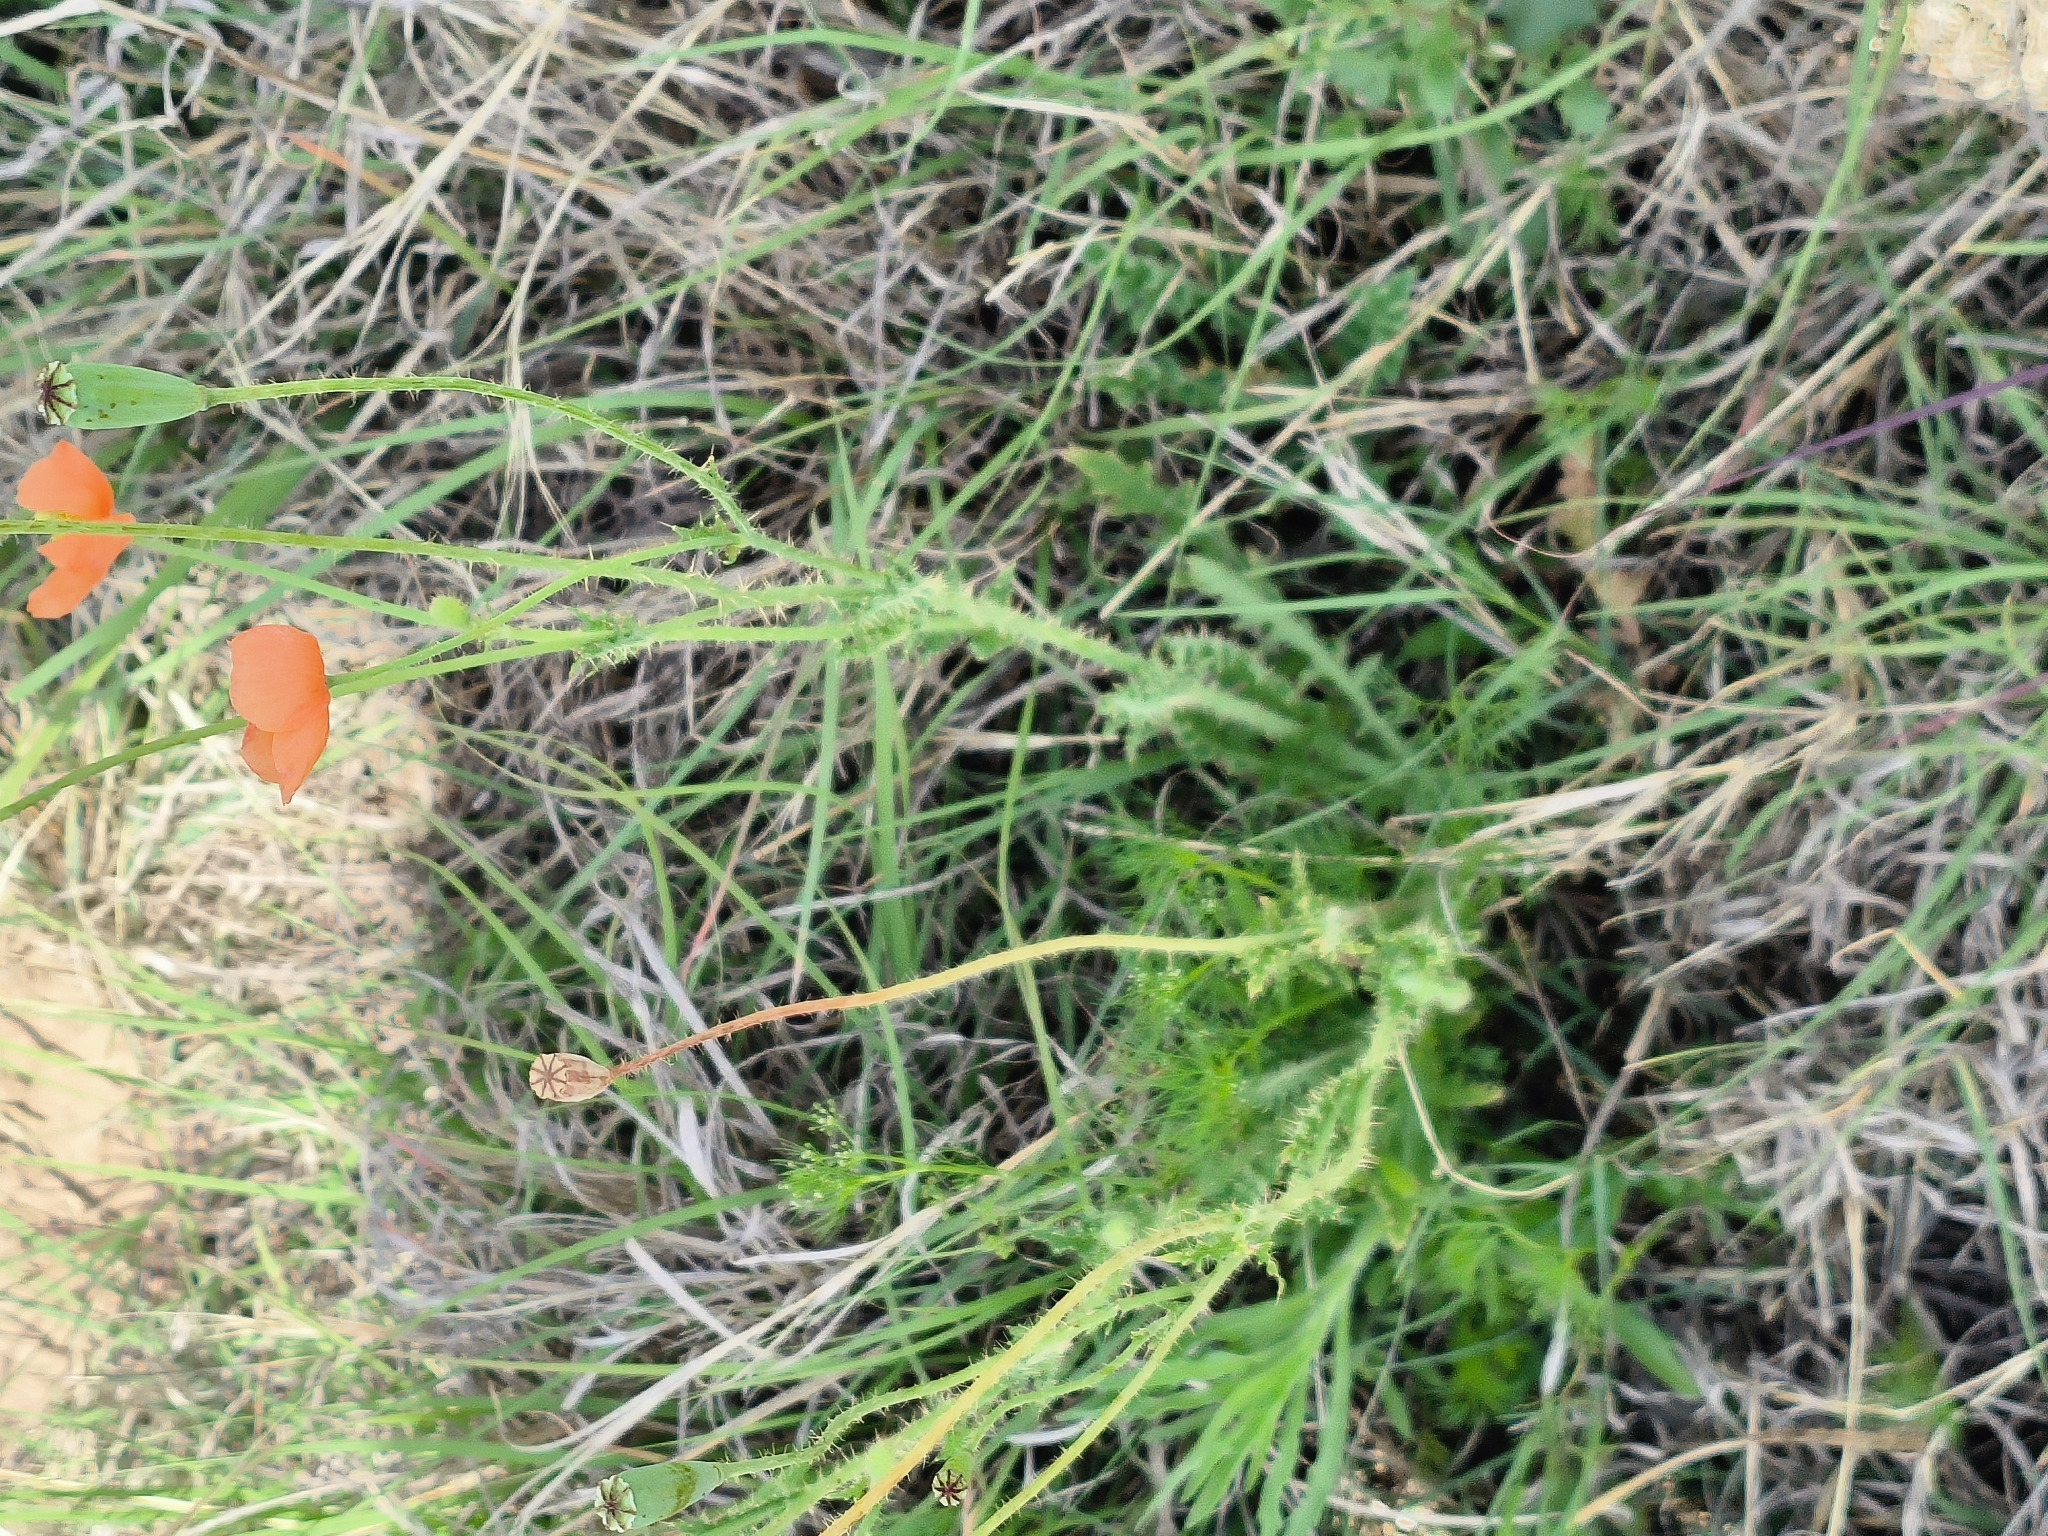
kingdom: Plantae
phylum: Tracheophyta
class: Magnoliopsida
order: Ranunculales
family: Papaveraceae
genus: Papaver
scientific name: Papaver aculeatum
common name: Bristle poppy
